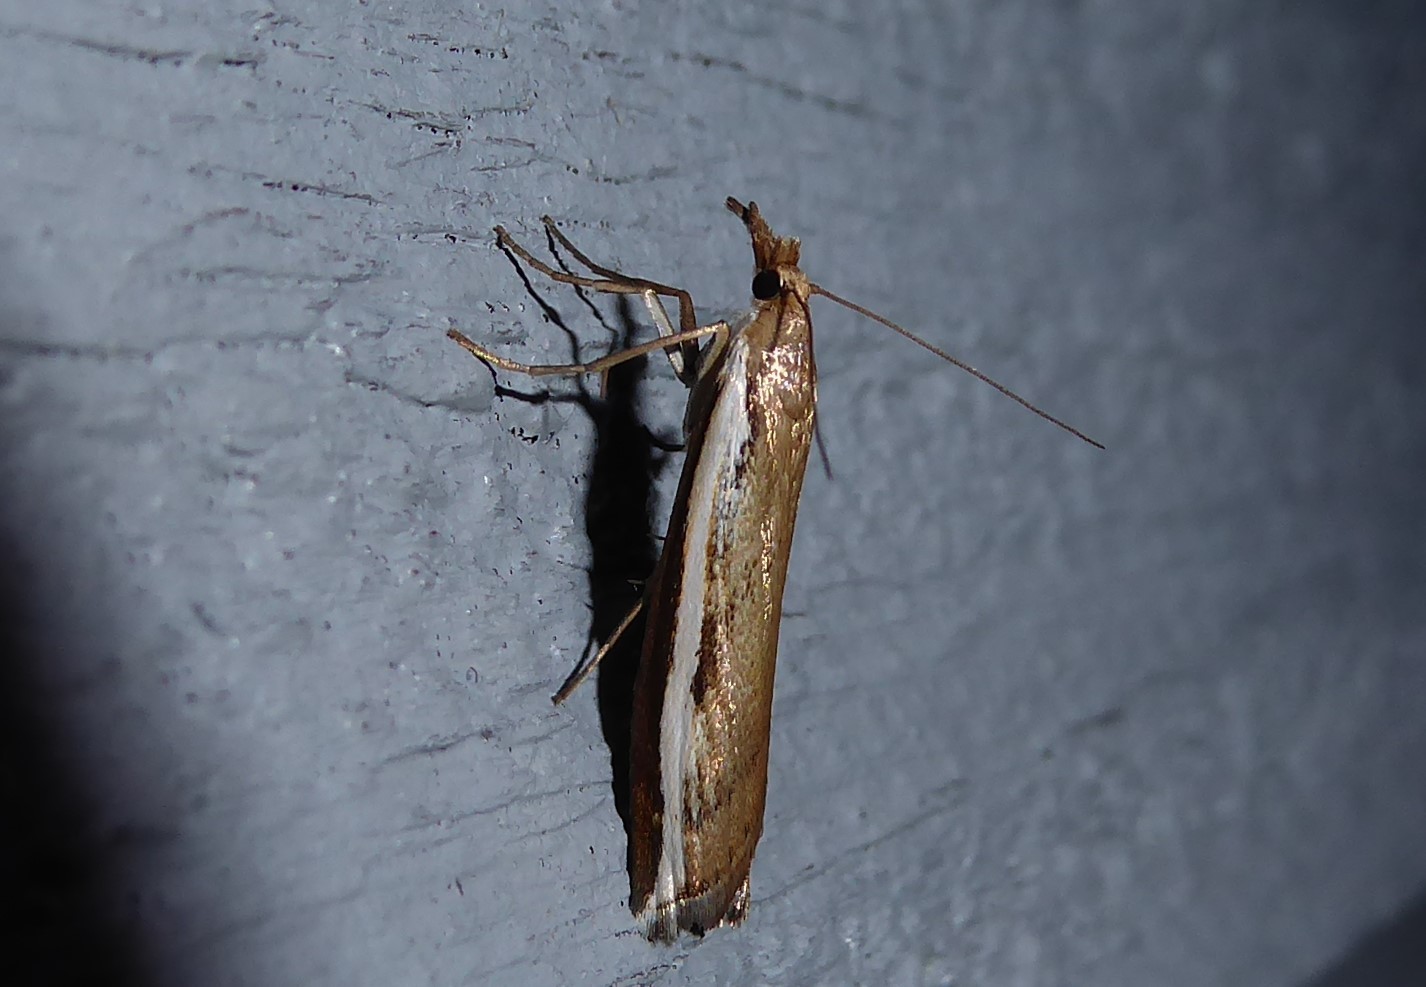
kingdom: Animalia
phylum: Arthropoda
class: Insecta
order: Lepidoptera
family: Crambidae
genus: Orocrambus
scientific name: Orocrambus flexuosellus
